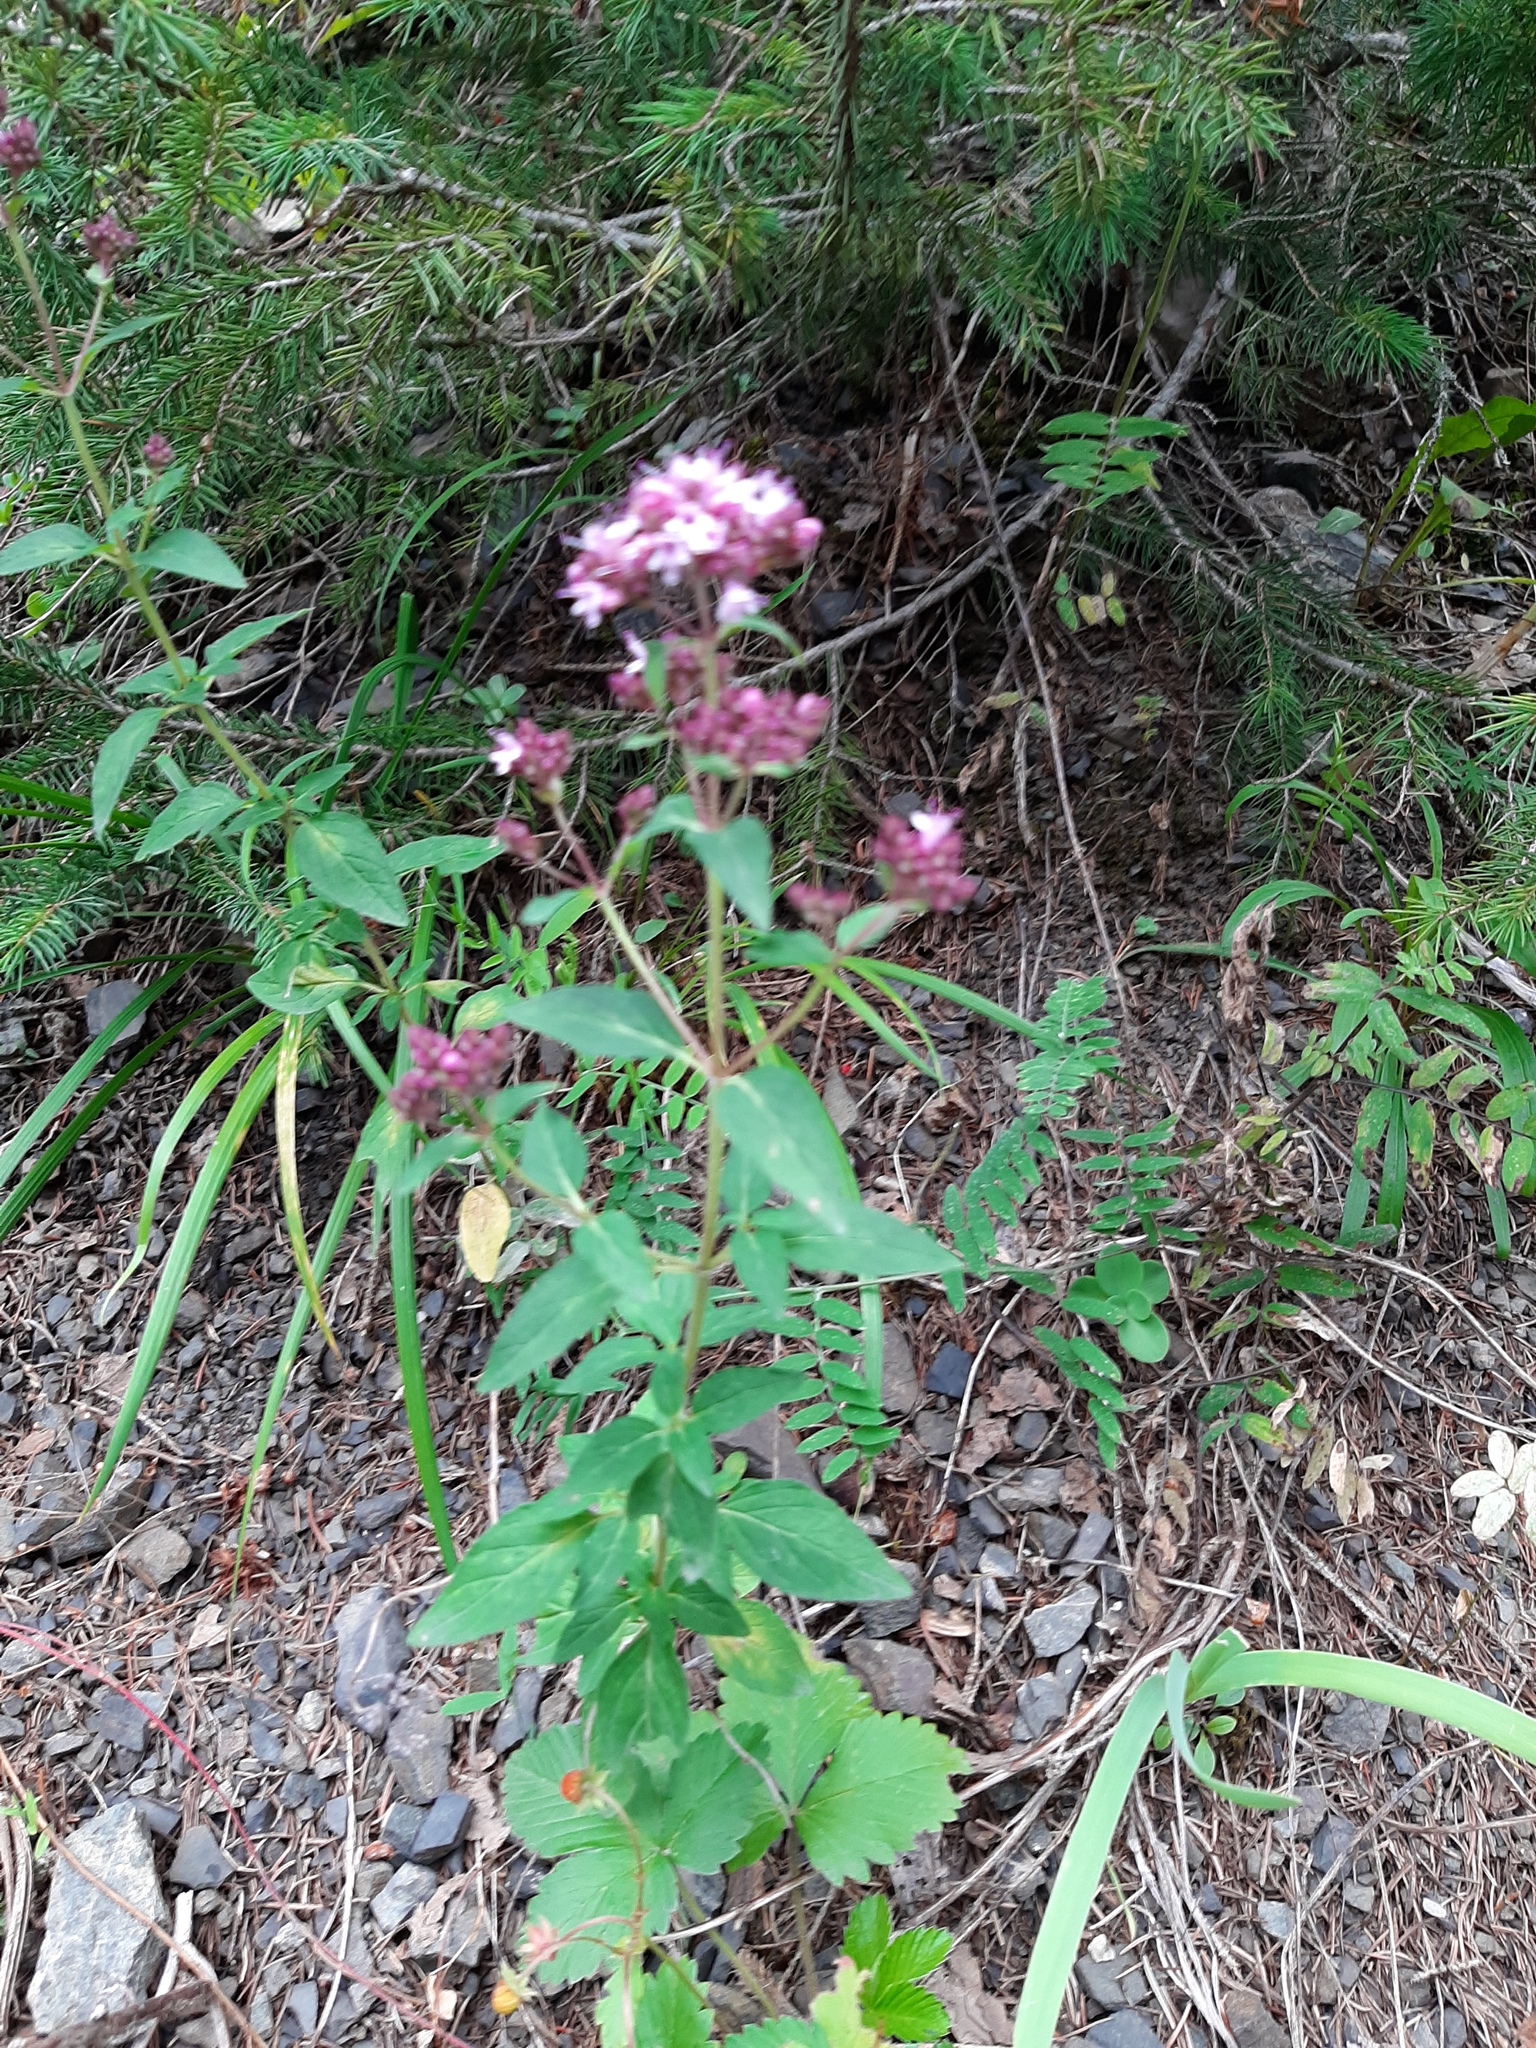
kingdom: Plantae
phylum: Tracheophyta
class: Magnoliopsida
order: Lamiales
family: Lamiaceae
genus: Origanum
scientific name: Origanum vulgare
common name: Wild marjoram
